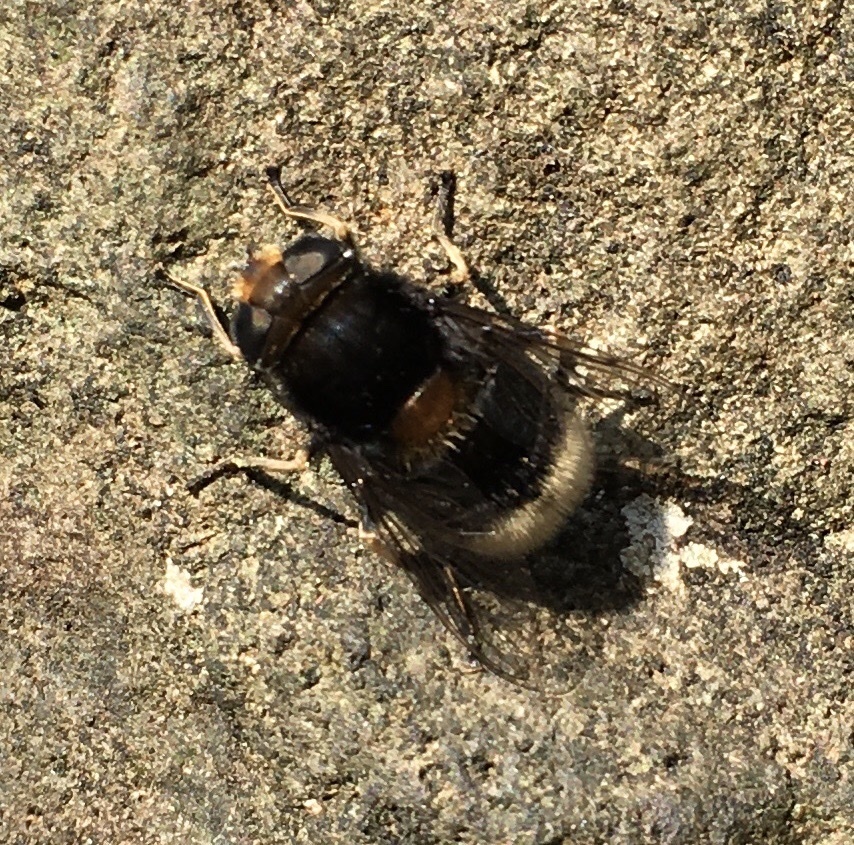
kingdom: Animalia
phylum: Arthropoda
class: Insecta
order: Diptera
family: Syrphidae
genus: Eristalis
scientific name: Eristalis intricaria
